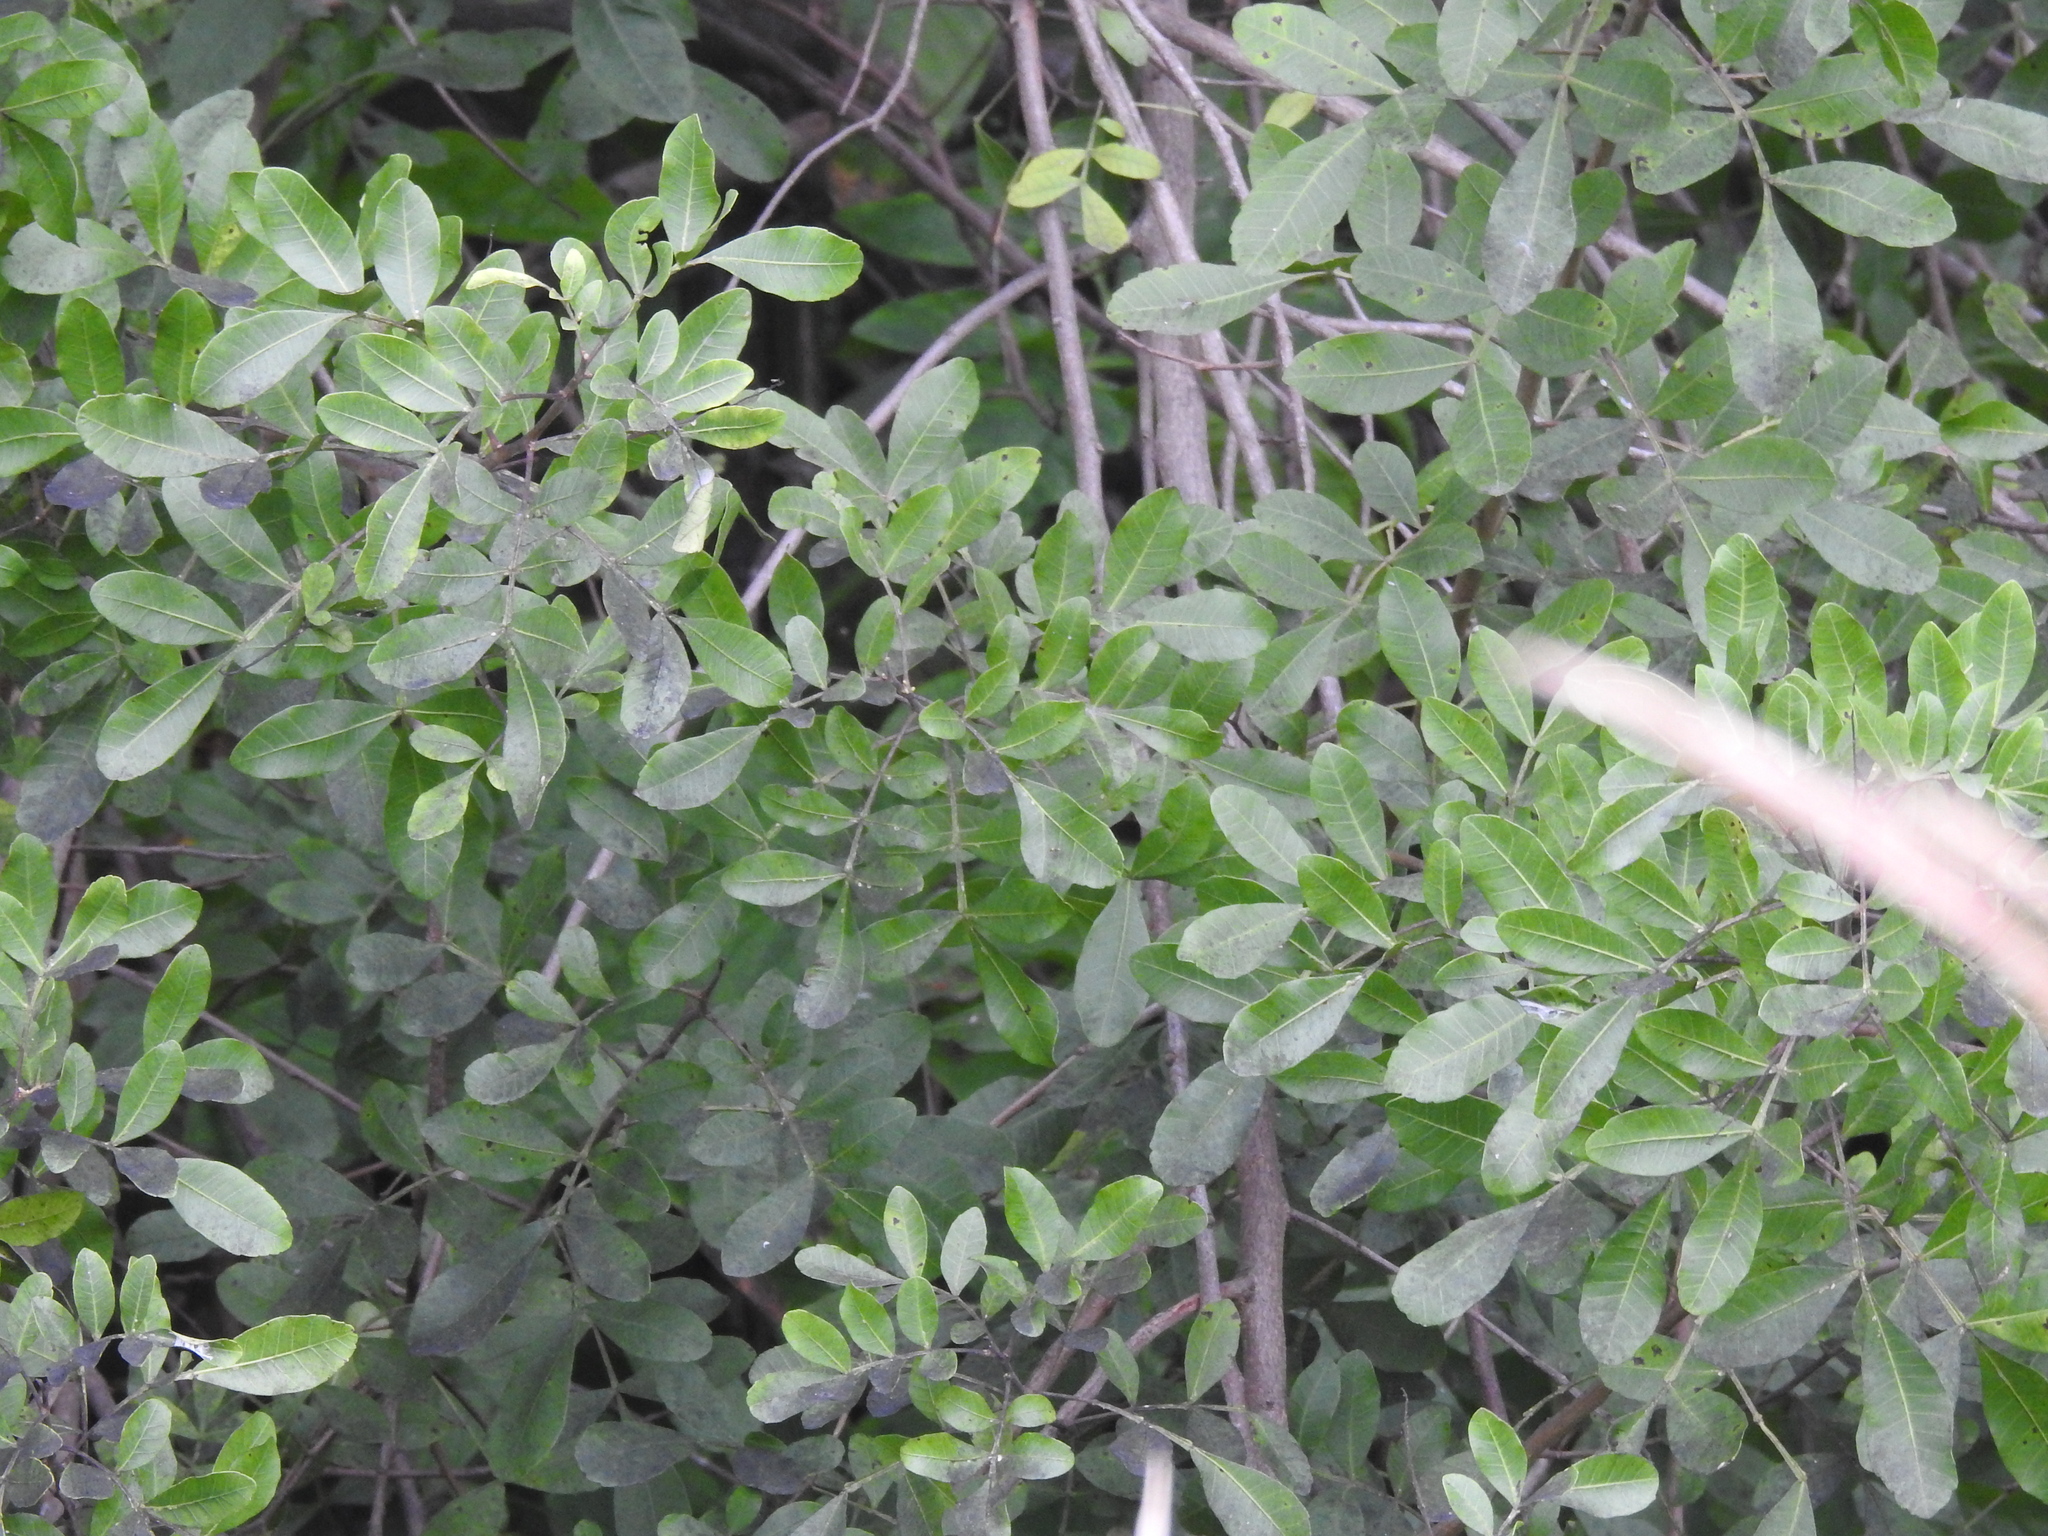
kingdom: Plantae
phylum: Tracheophyta
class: Magnoliopsida
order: Sapindales
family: Anacardiaceae
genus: Schinus
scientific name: Schinus terebinthifolia
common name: Brazilian peppertree
